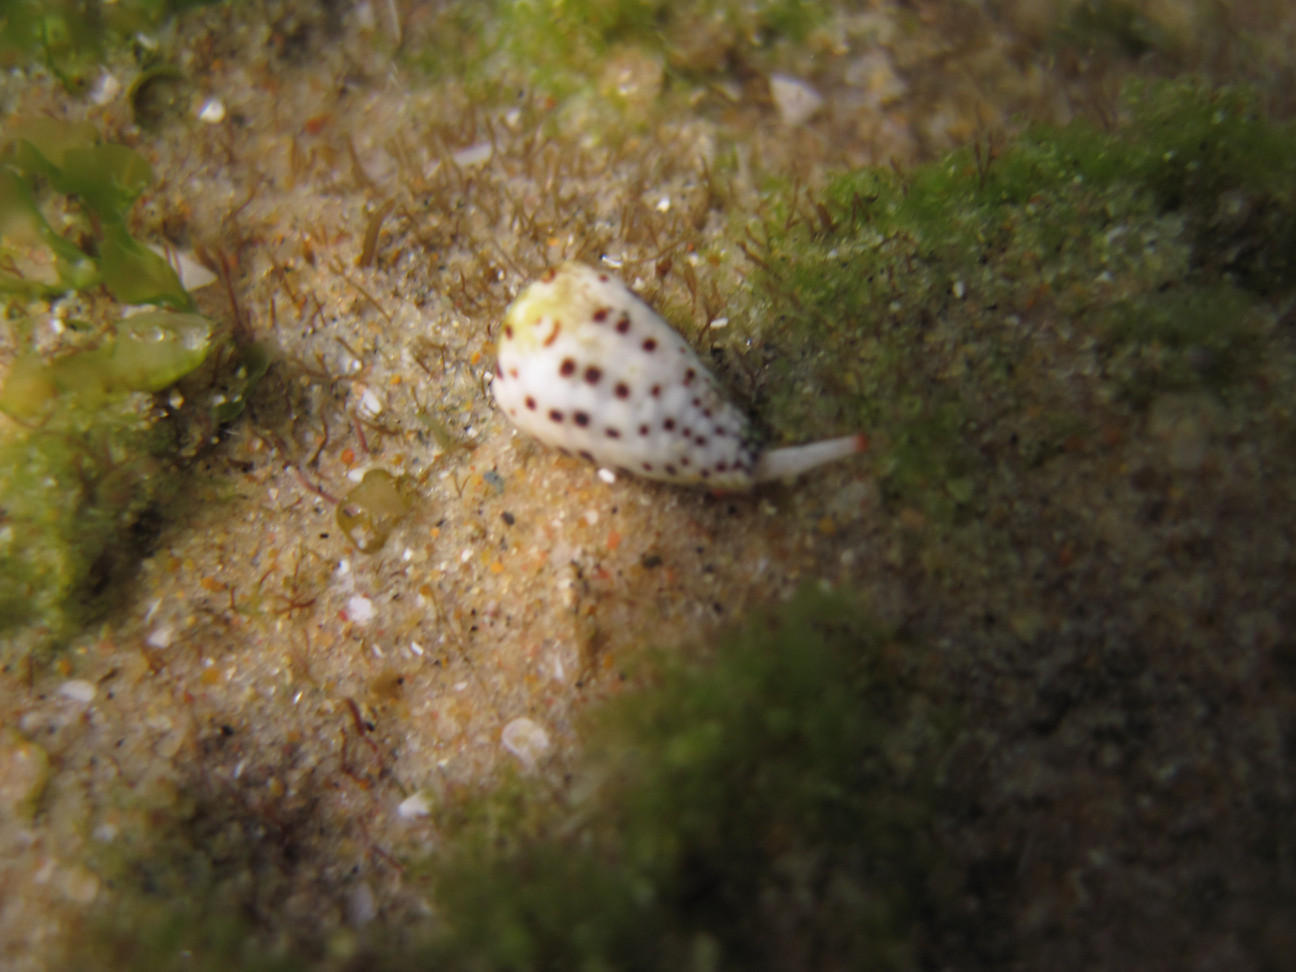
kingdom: Animalia
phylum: Mollusca
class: Gastropoda
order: Neogastropoda
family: Conidae
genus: Conus
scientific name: Conus parvatus
